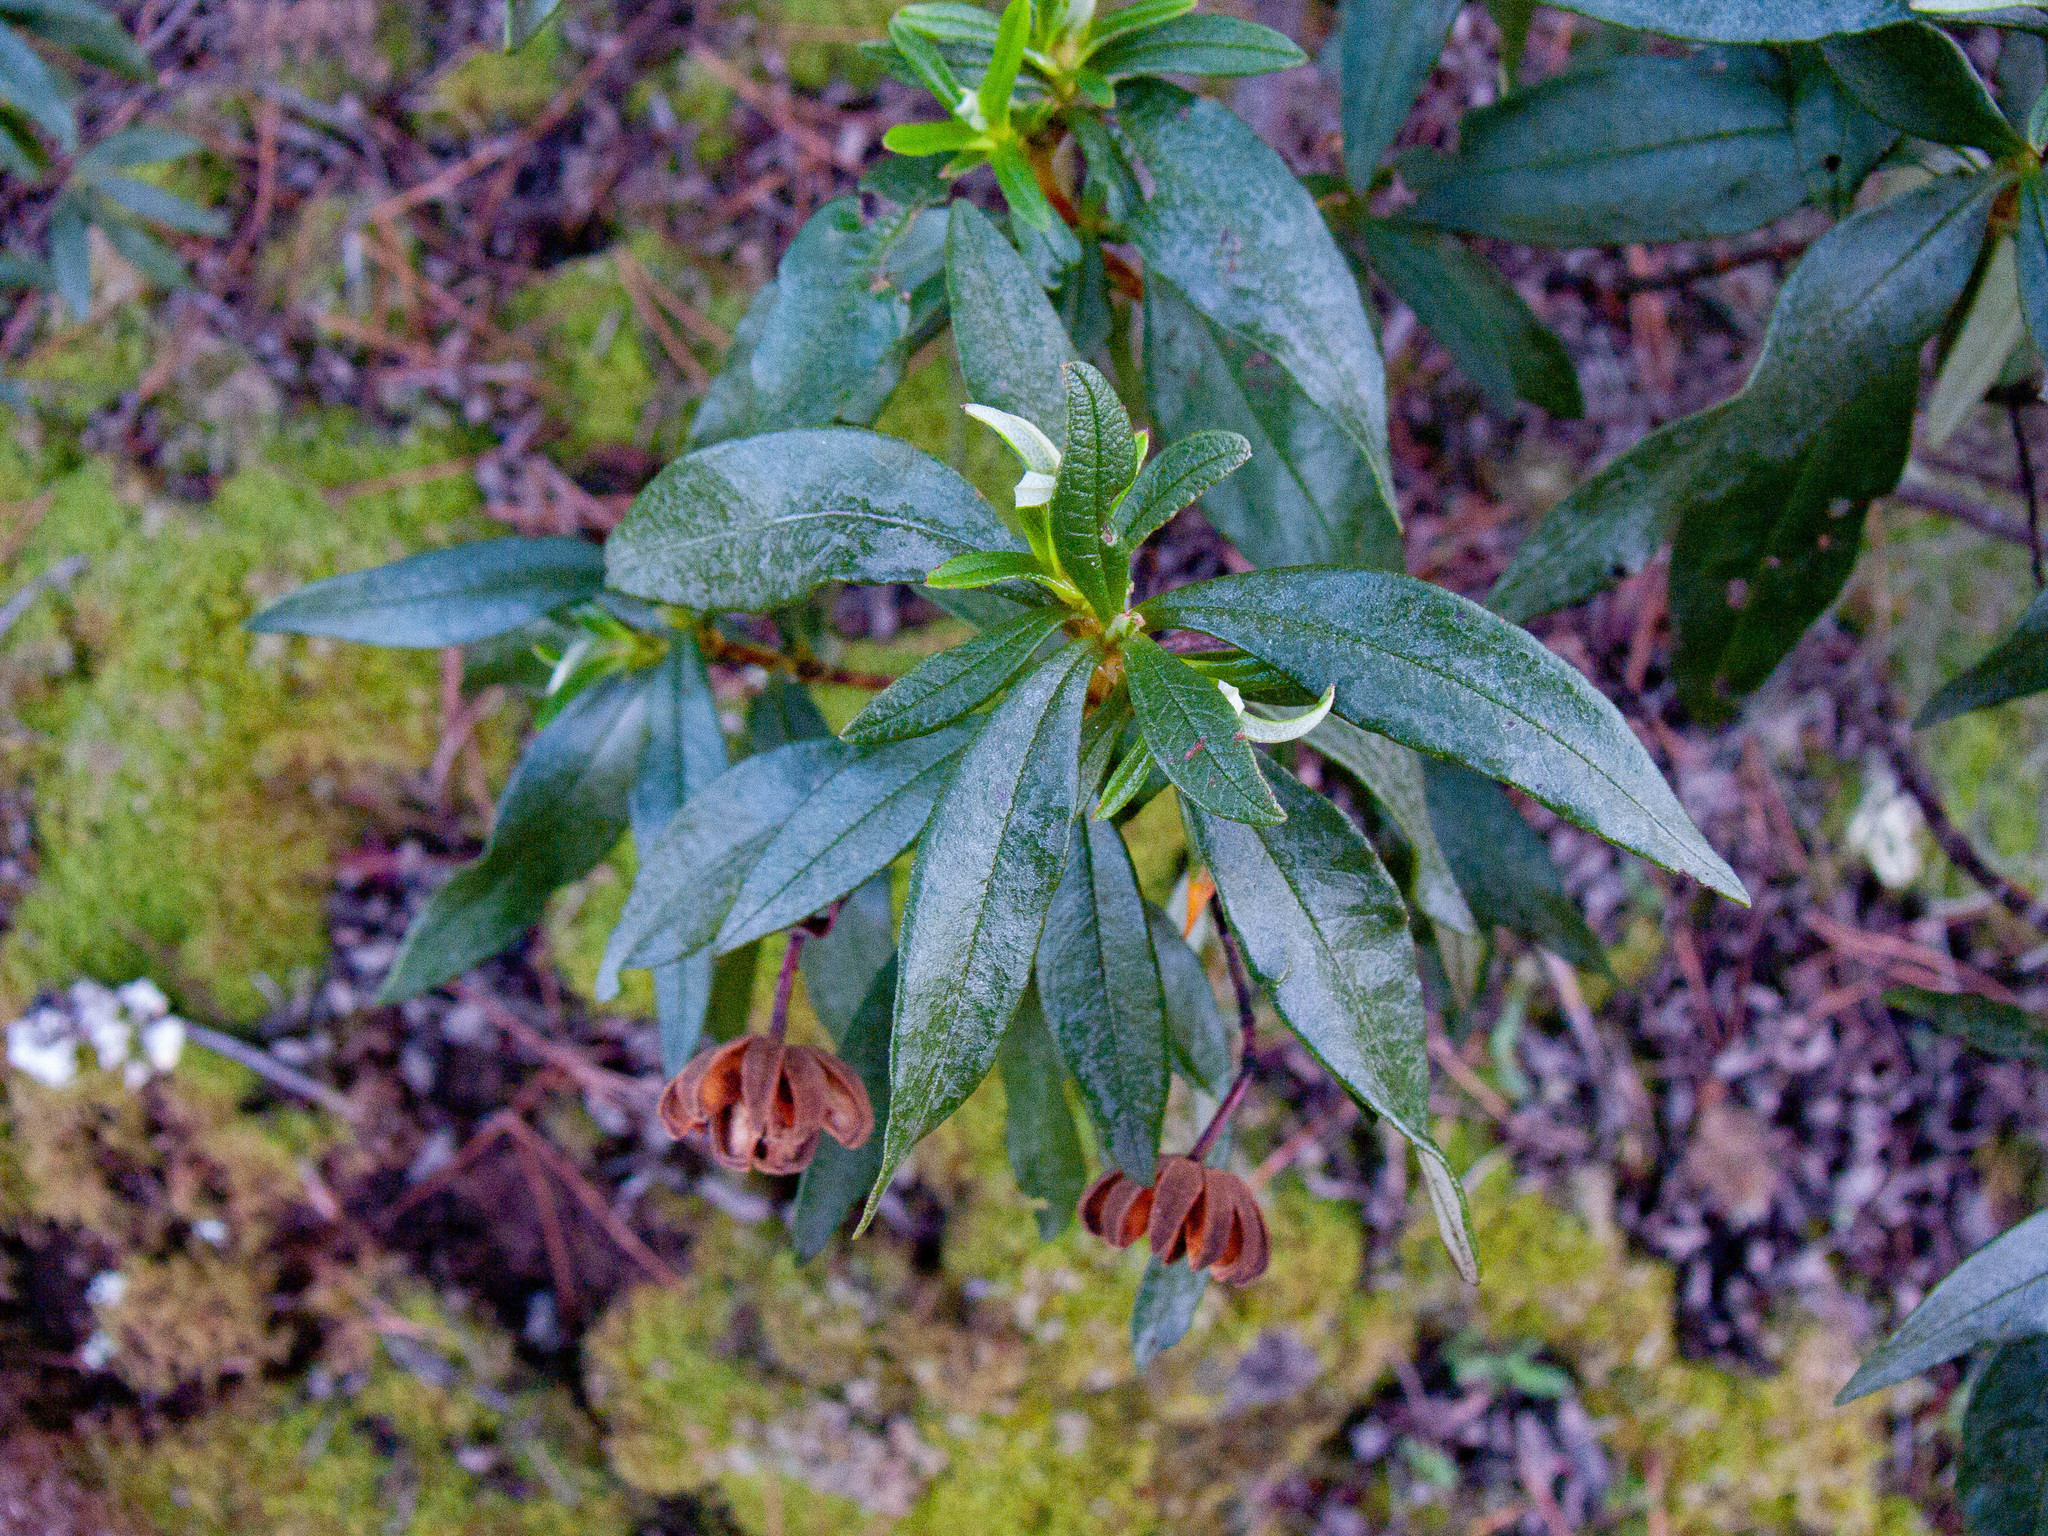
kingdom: Plantae
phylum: Tracheophyta
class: Magnoliopsida
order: Malvales
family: Cistaceae
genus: Cistus
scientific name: Cistus ladanifer
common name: Common gum cistus
